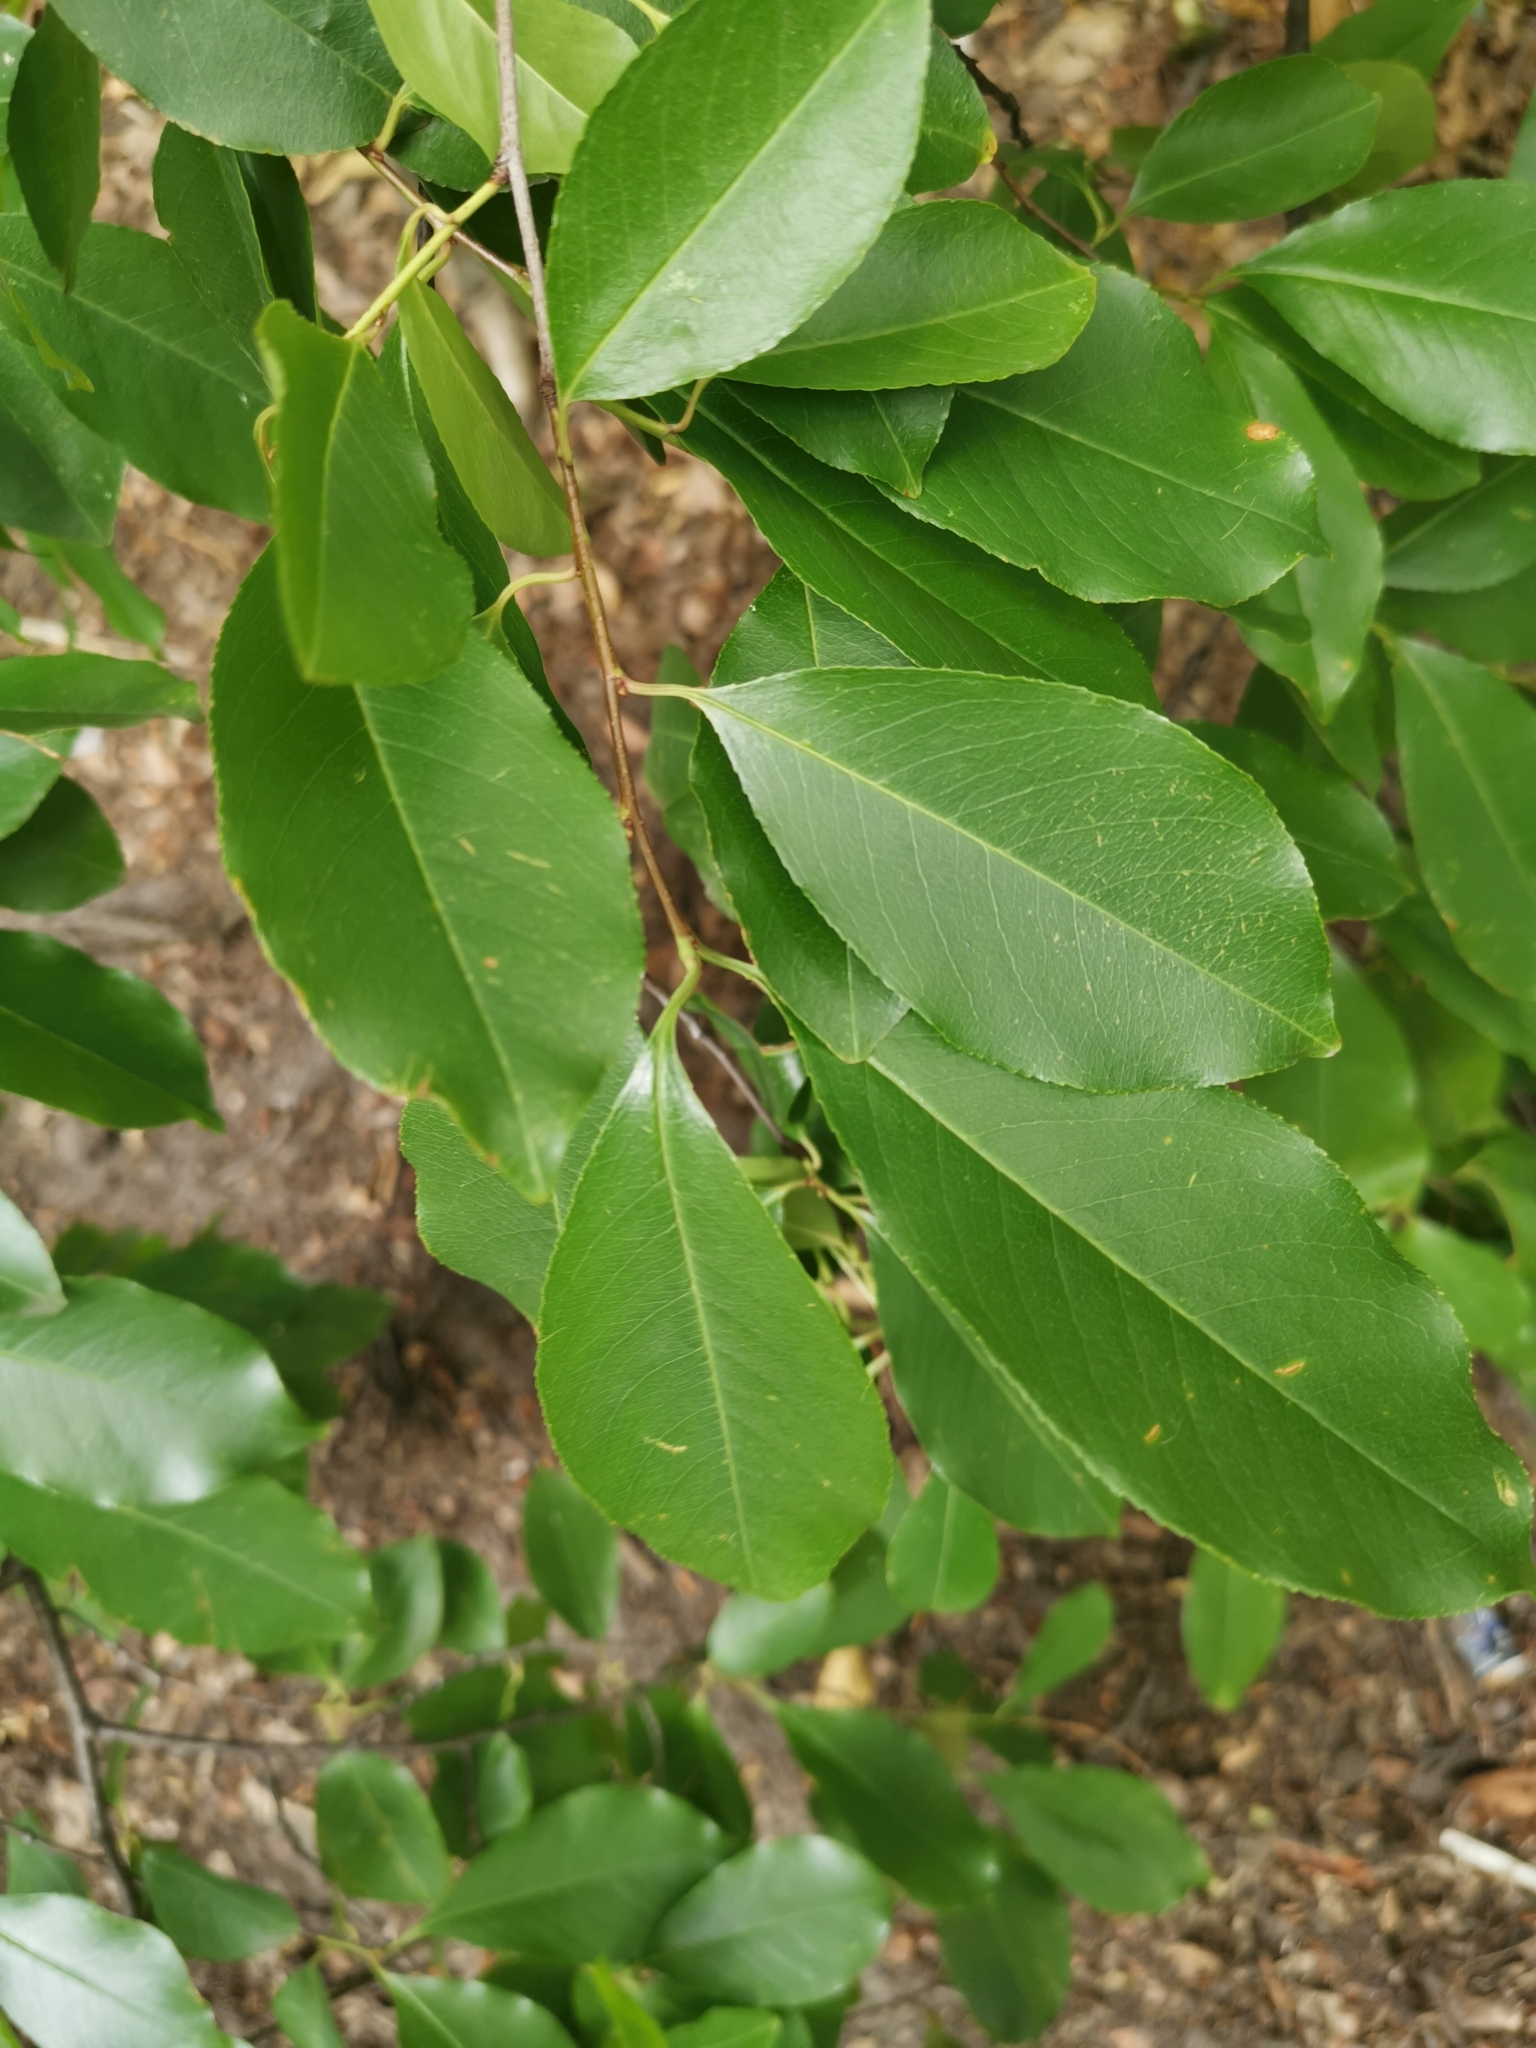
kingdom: Plantae
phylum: Tracheophyta
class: Magnoliopsida
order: Rosales
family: Rosaceae
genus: Prunus
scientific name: Prunus serotina
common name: Black cherry
